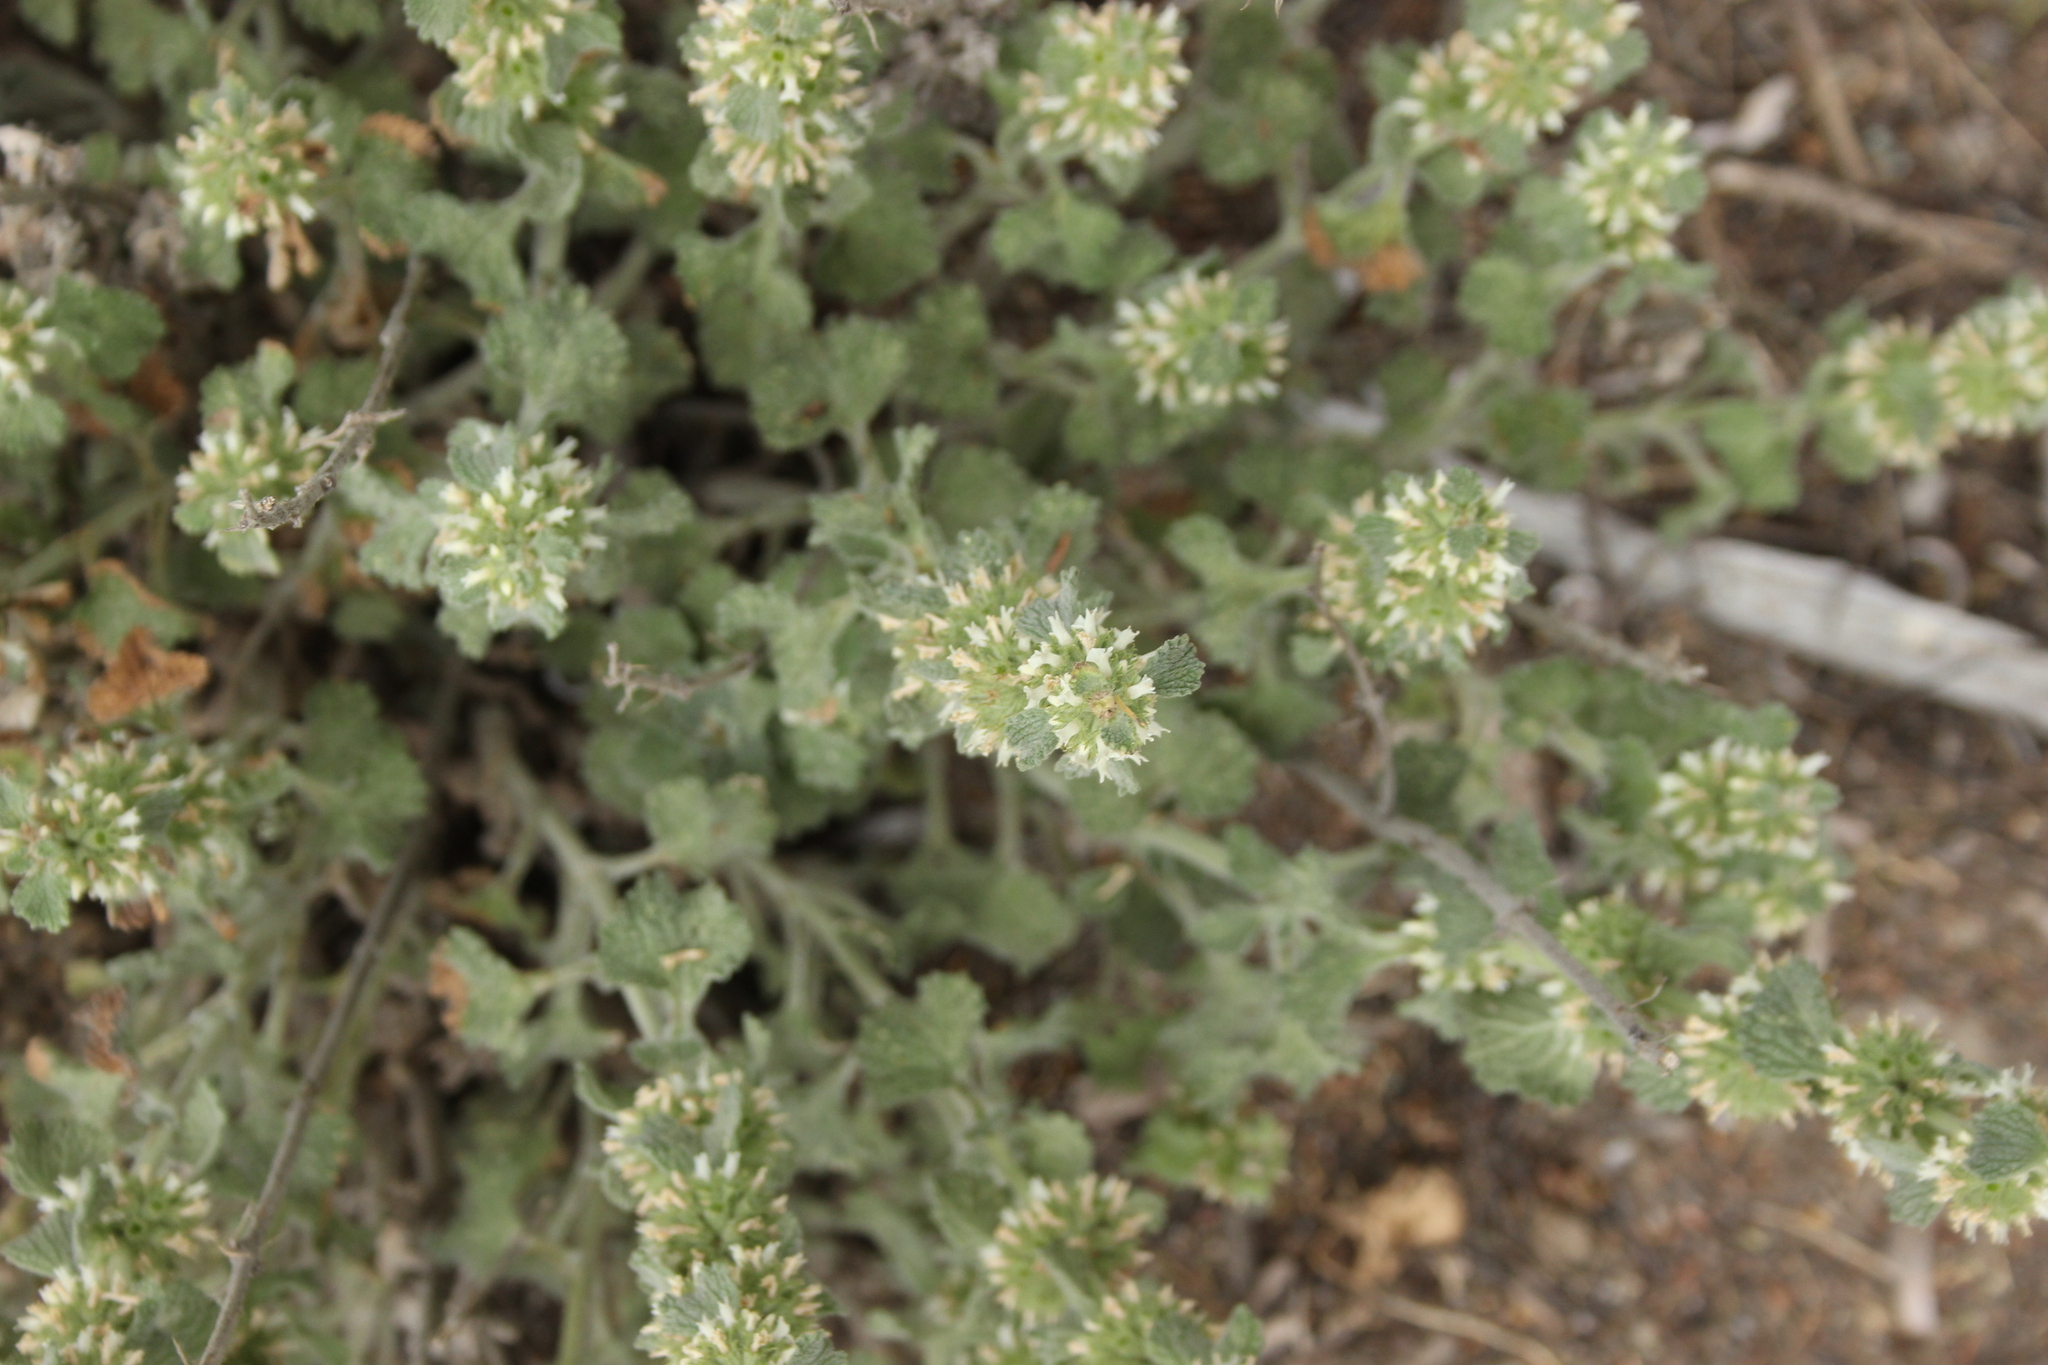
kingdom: Plantae
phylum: Tracheophyta
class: Magnoliopsida
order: Lamiales
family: Lamiaceae
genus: Marrubium
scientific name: Marrubium vulgare
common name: Horehound
